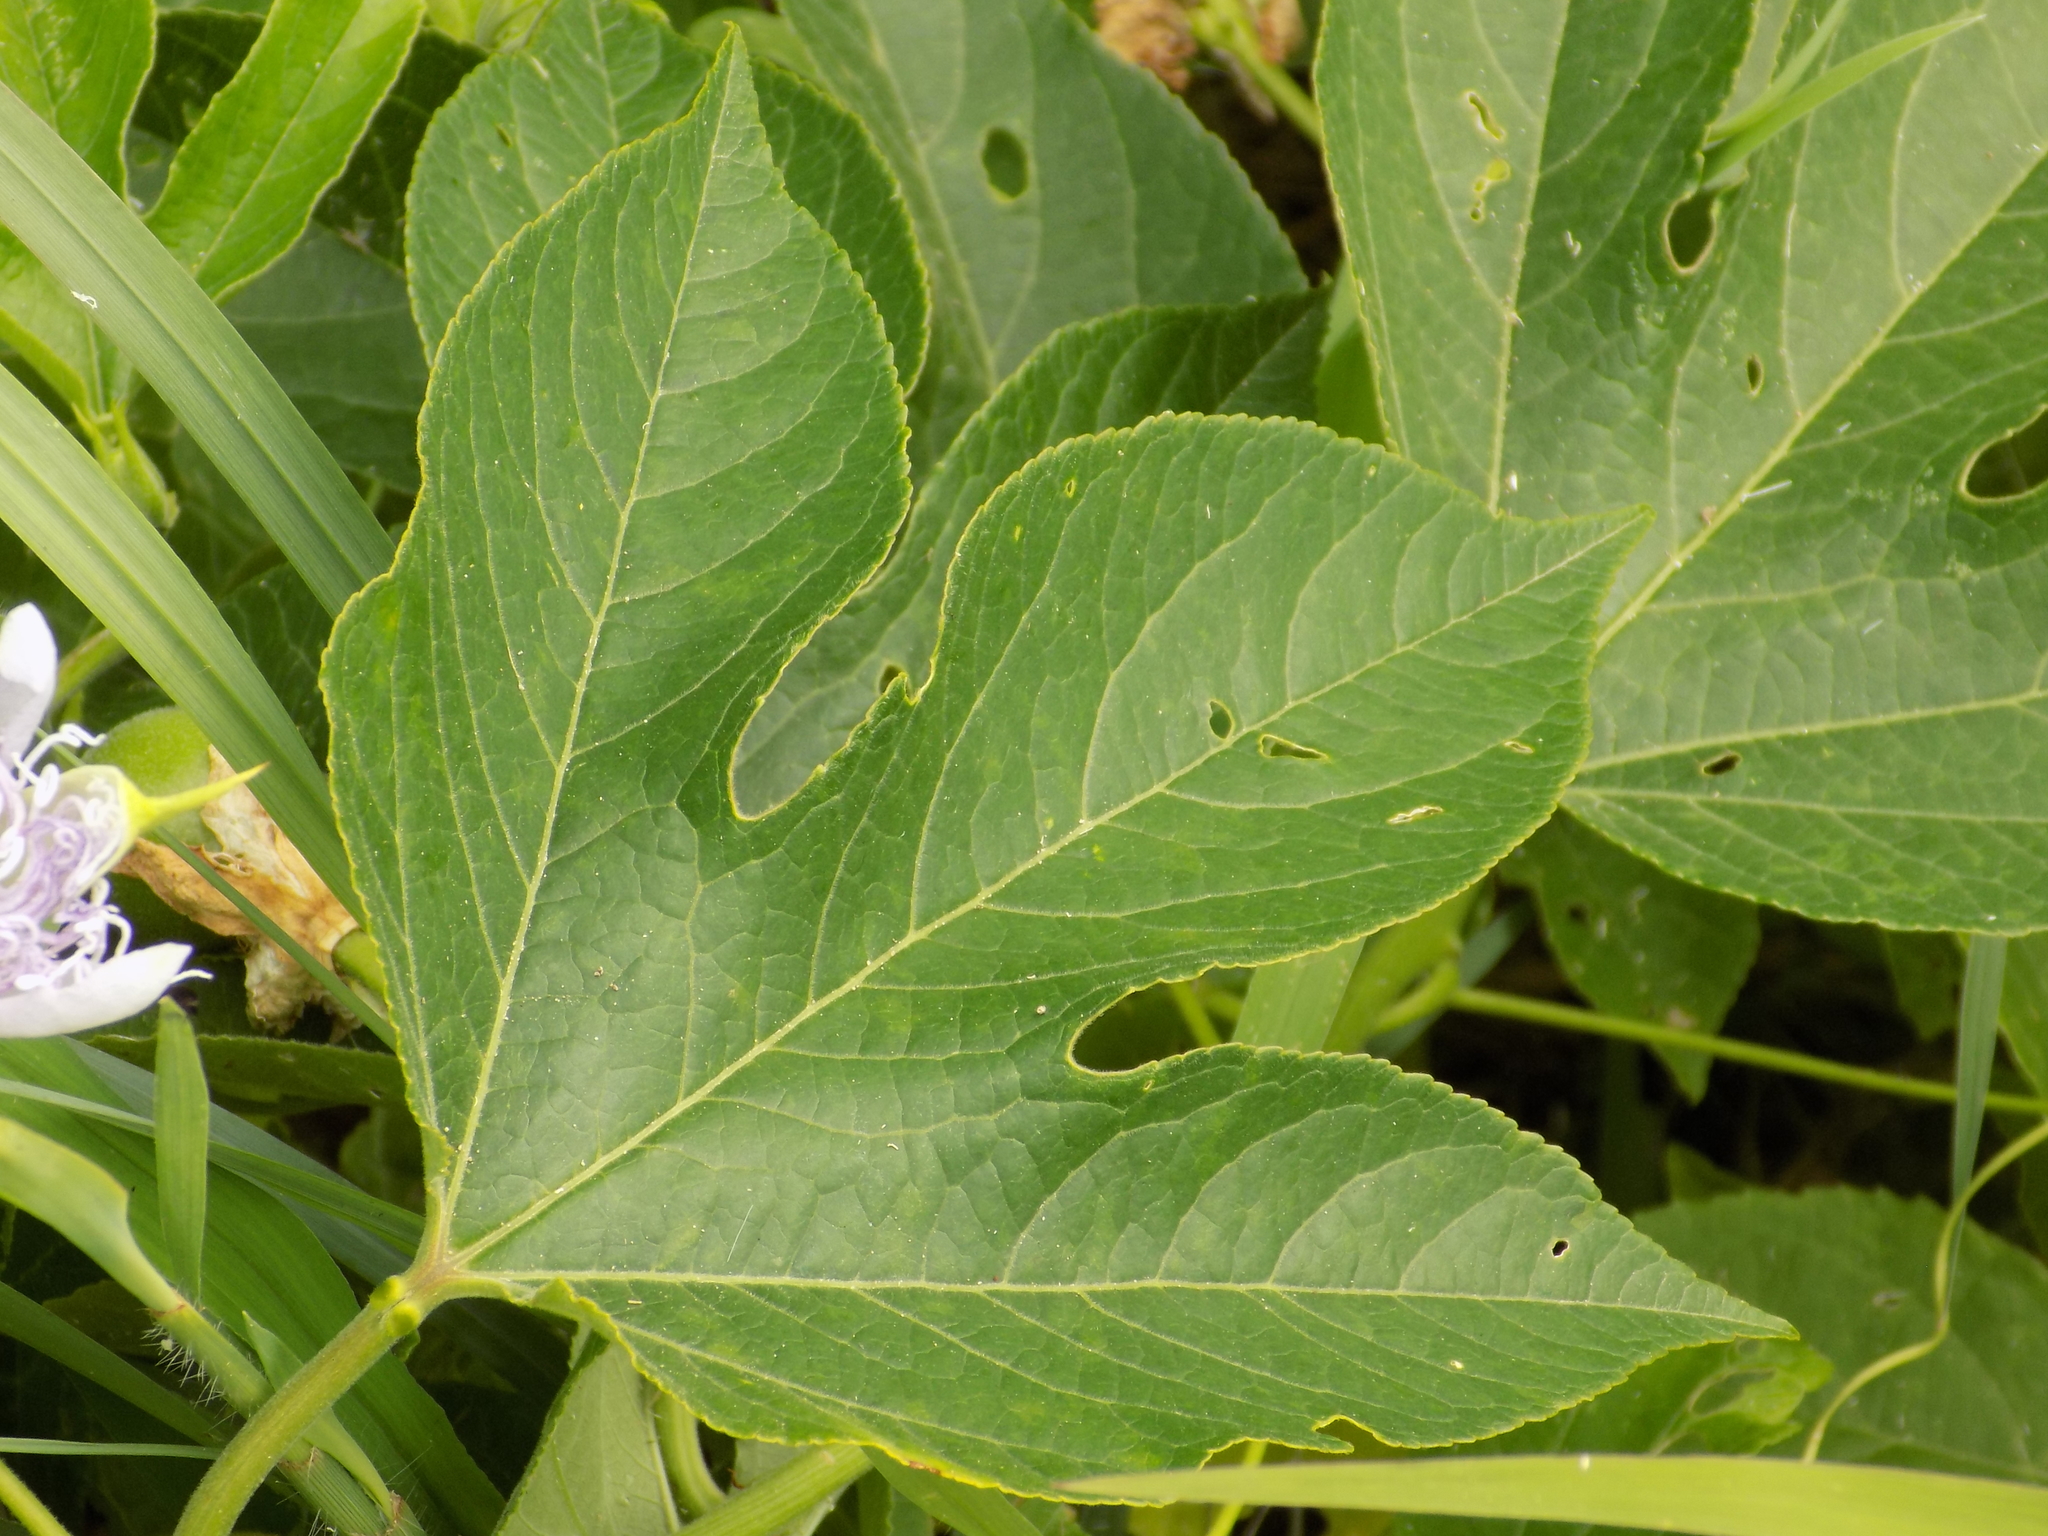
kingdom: Plantae
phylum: Tracheophyta
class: Magnoliopsida
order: Malpighiales
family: Passifloraceae
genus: Passiflora
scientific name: Passiflora incarnata
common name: Apricot-vine
